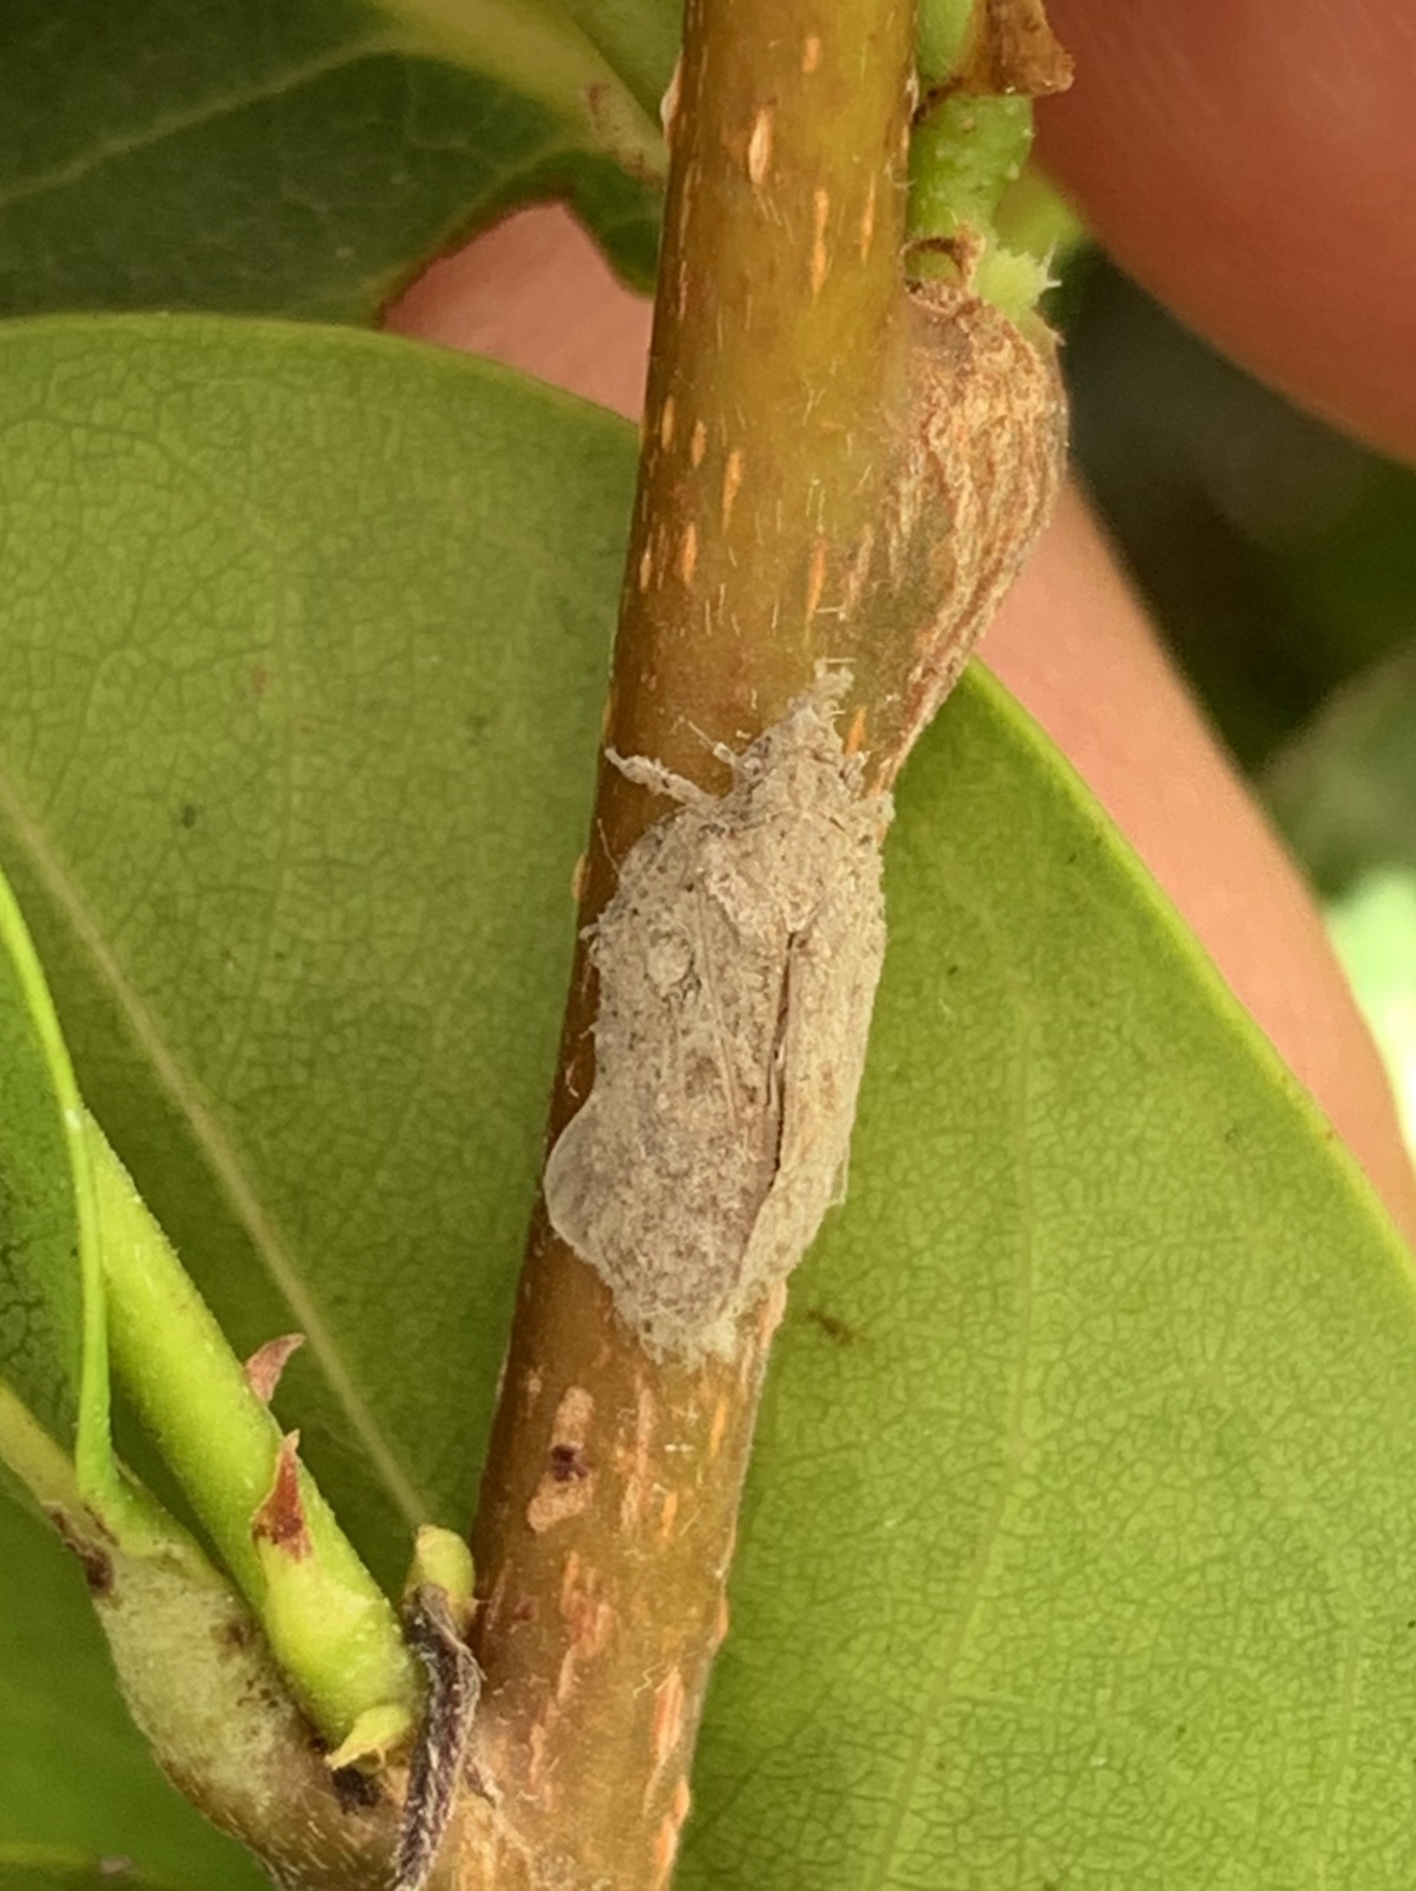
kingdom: Animalia
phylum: Arthropoda
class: Insecta
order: Hemiptera
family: Flatidae
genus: Flatoidinus
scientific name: Flatoidinus punctatus
